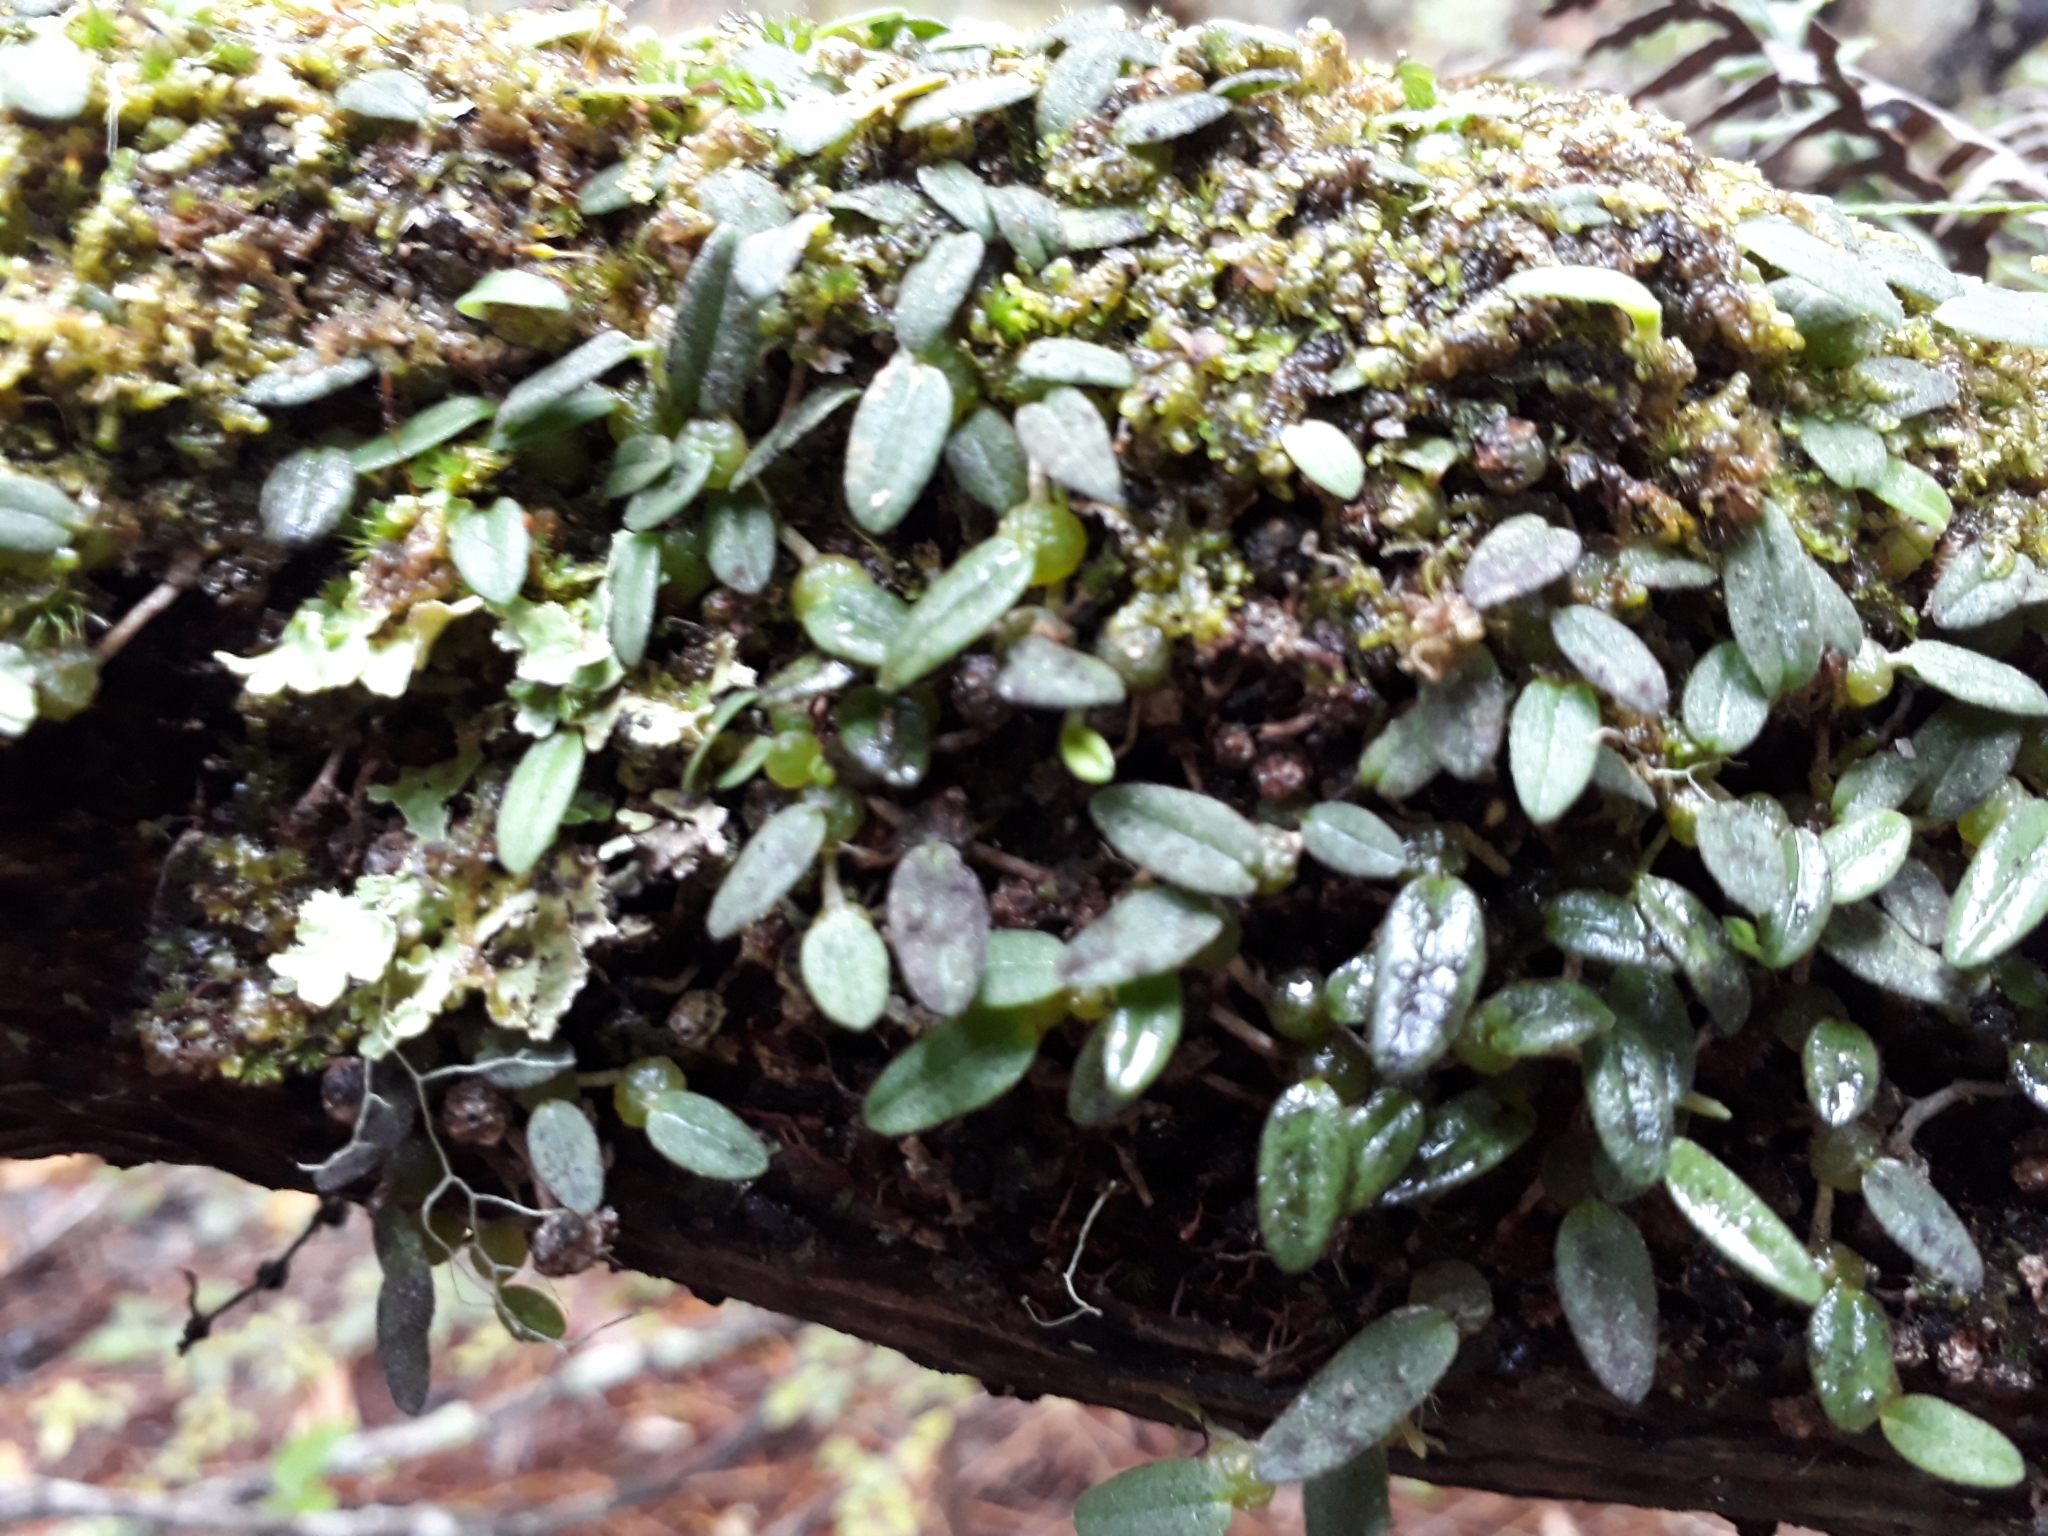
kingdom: Plantae
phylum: Tracheophyta
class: Liliopsida
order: Asparagales
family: Orchidaceae
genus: Bulbophyllum
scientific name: Bulbophyllum pygmaeum
